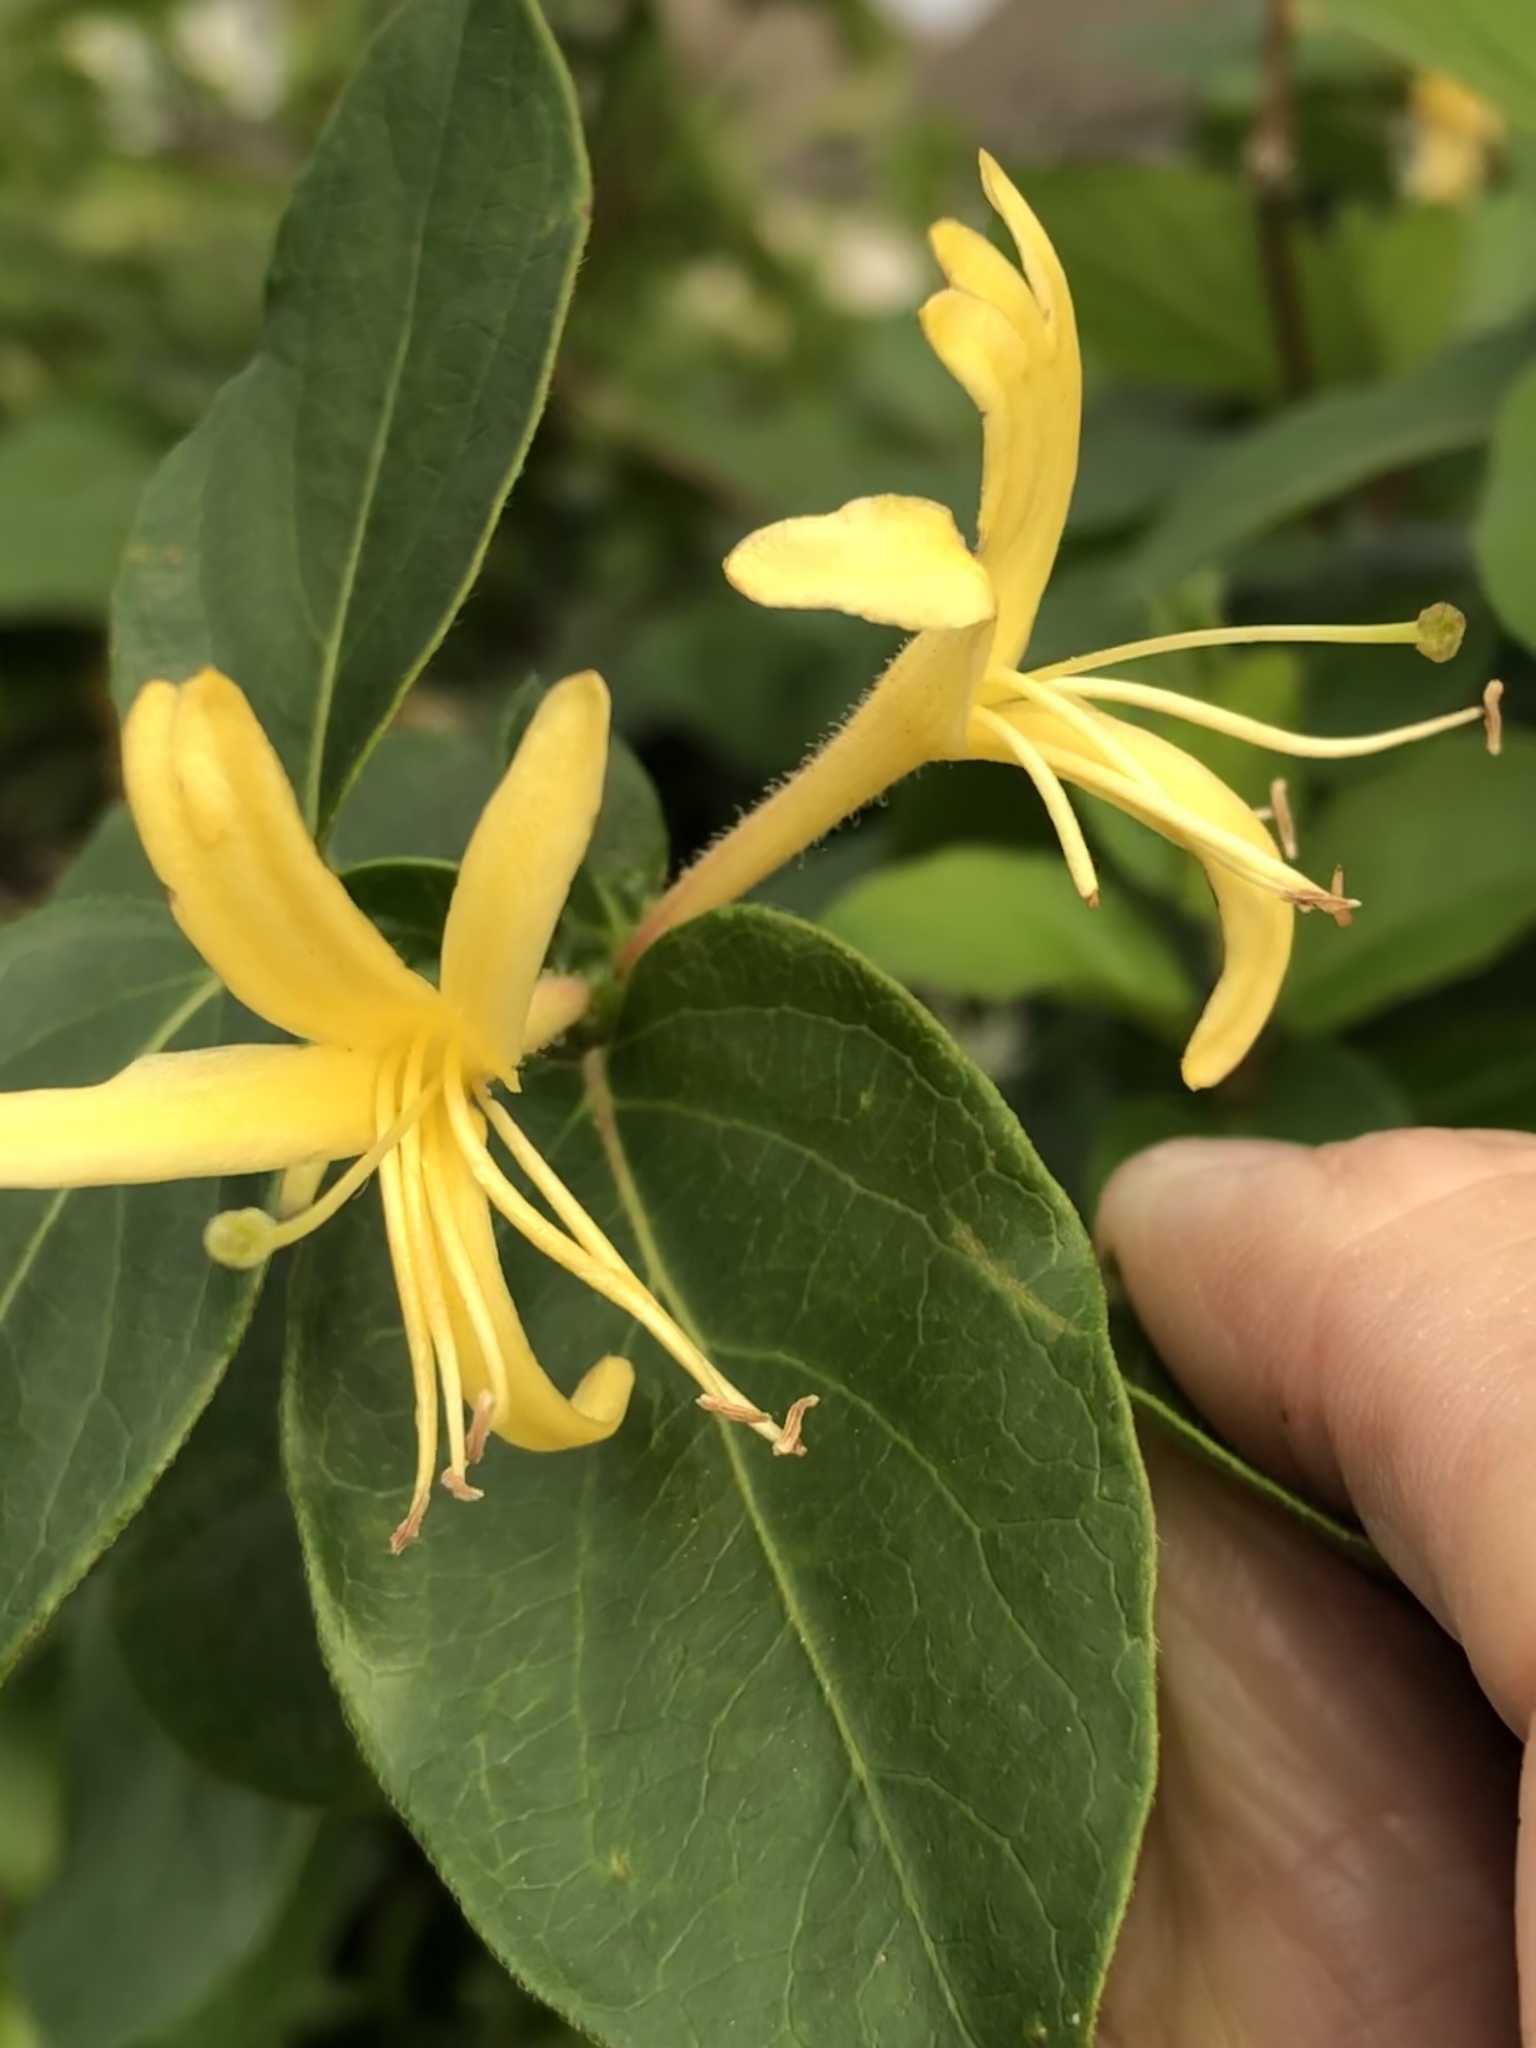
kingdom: Plantae
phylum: Tracheophyta
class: Magnoliopsida
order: Dipsacales
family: Caprifoliaceae
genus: Lonicera
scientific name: Lonicera japonica
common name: Japanese honeysuckle
